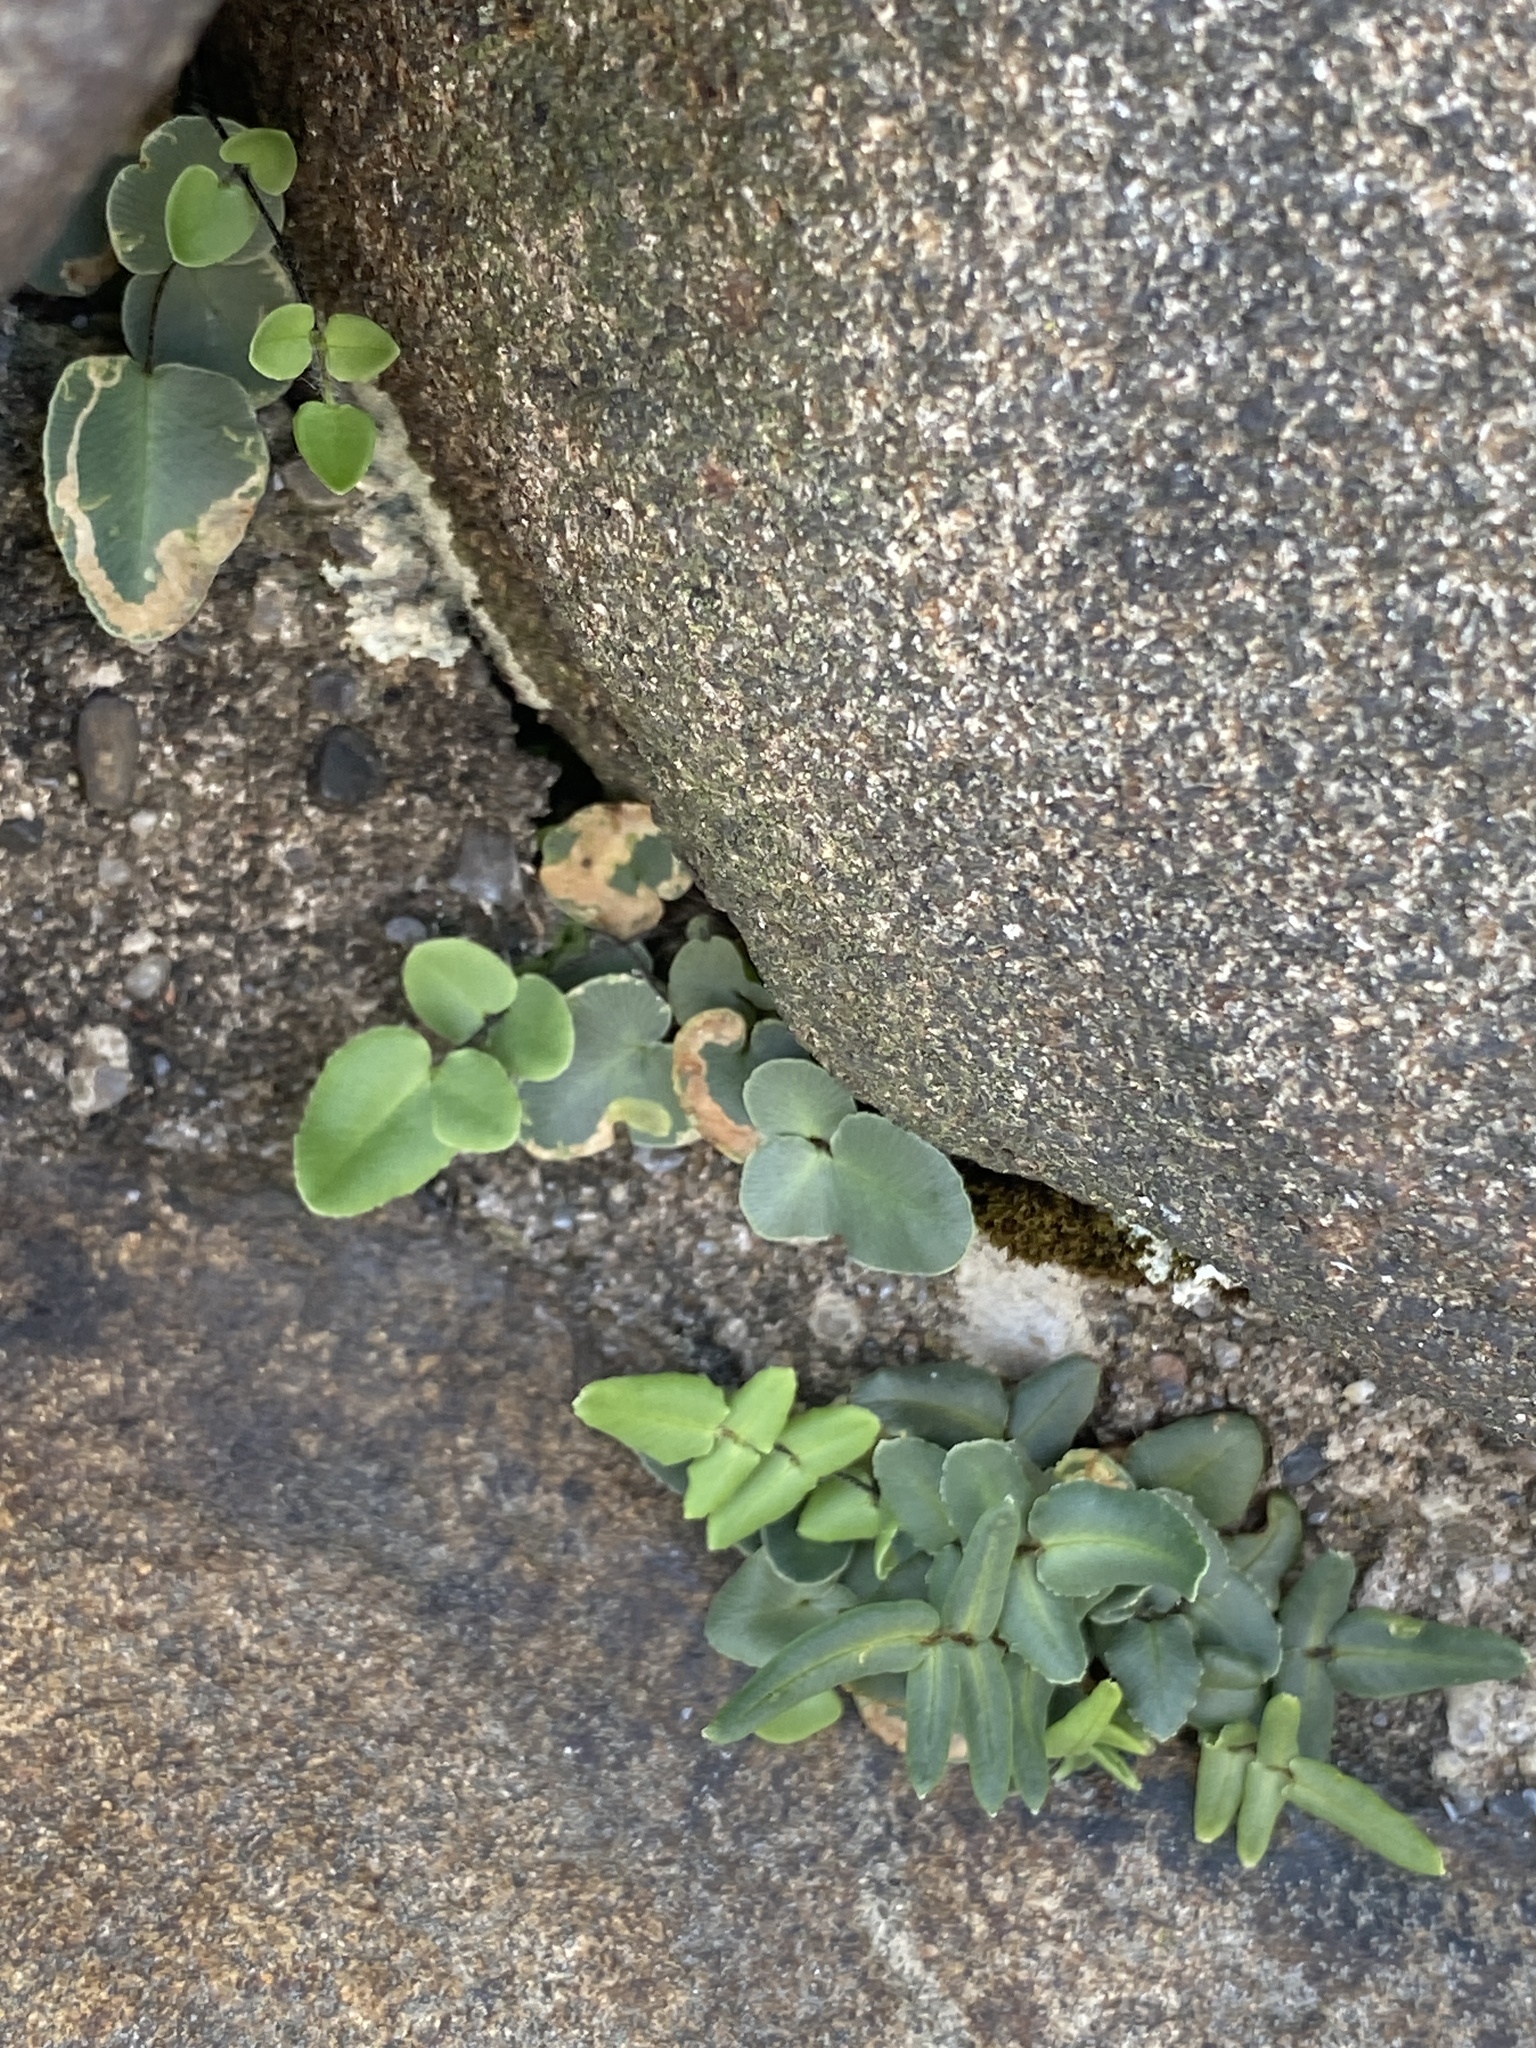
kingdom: Plantae
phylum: Tracheophyta
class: Polypodiopsida
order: Polypodiales
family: Pteridaceae
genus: Pellaea
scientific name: Pellaea atropurpurea
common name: Hairy cliffbrake
